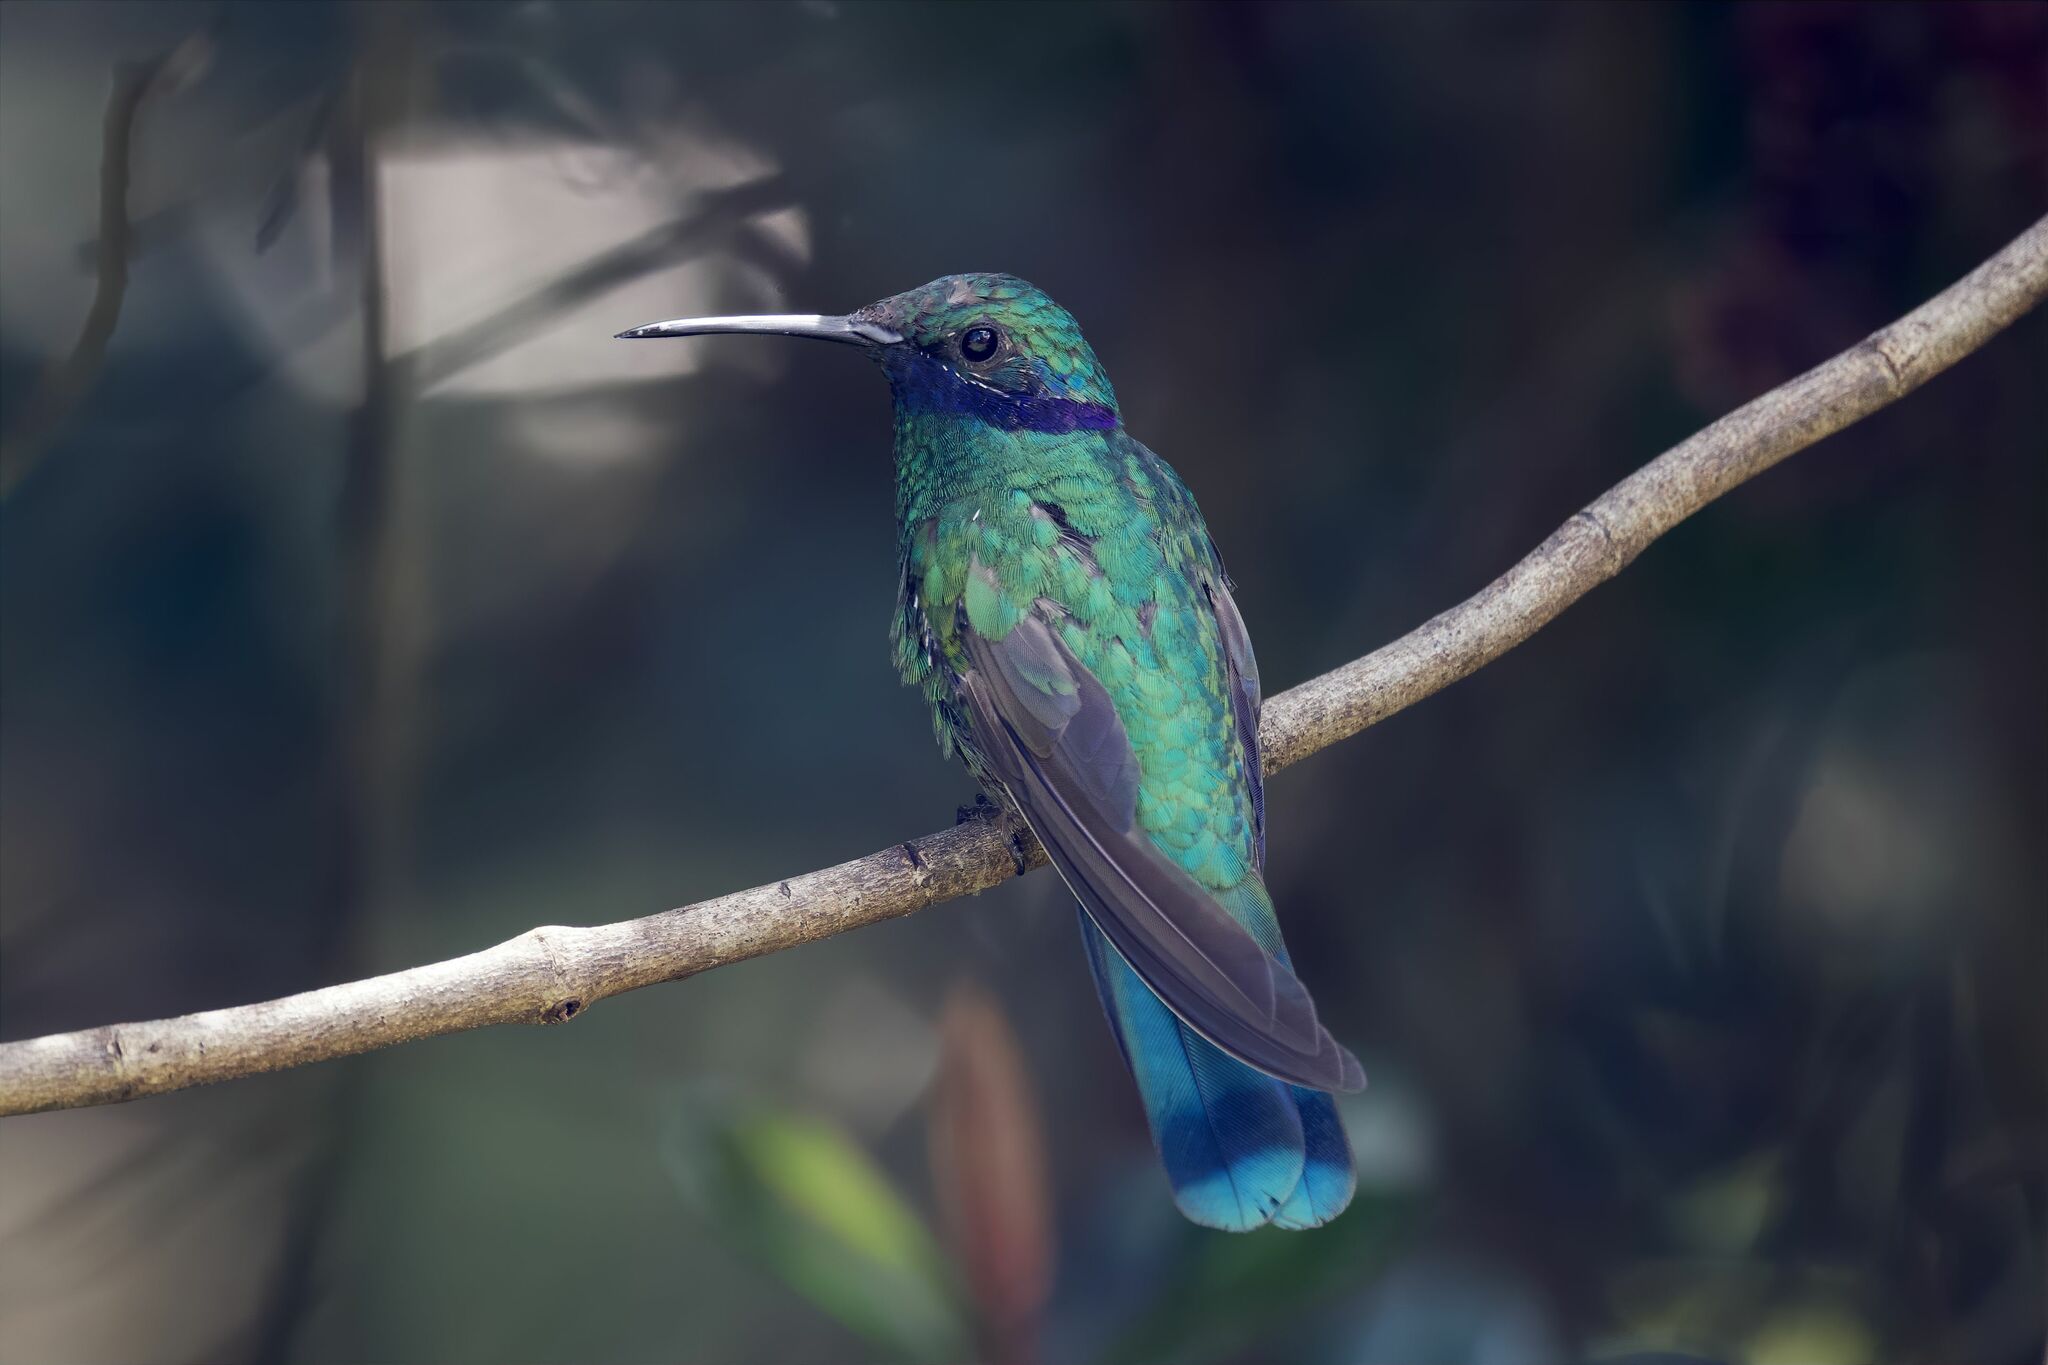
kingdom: Animalia
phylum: Chordata
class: Aves
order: Apodiformes
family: Trochilidae
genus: Colibri
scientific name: Colibri coruscans
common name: Sparkling violetear
